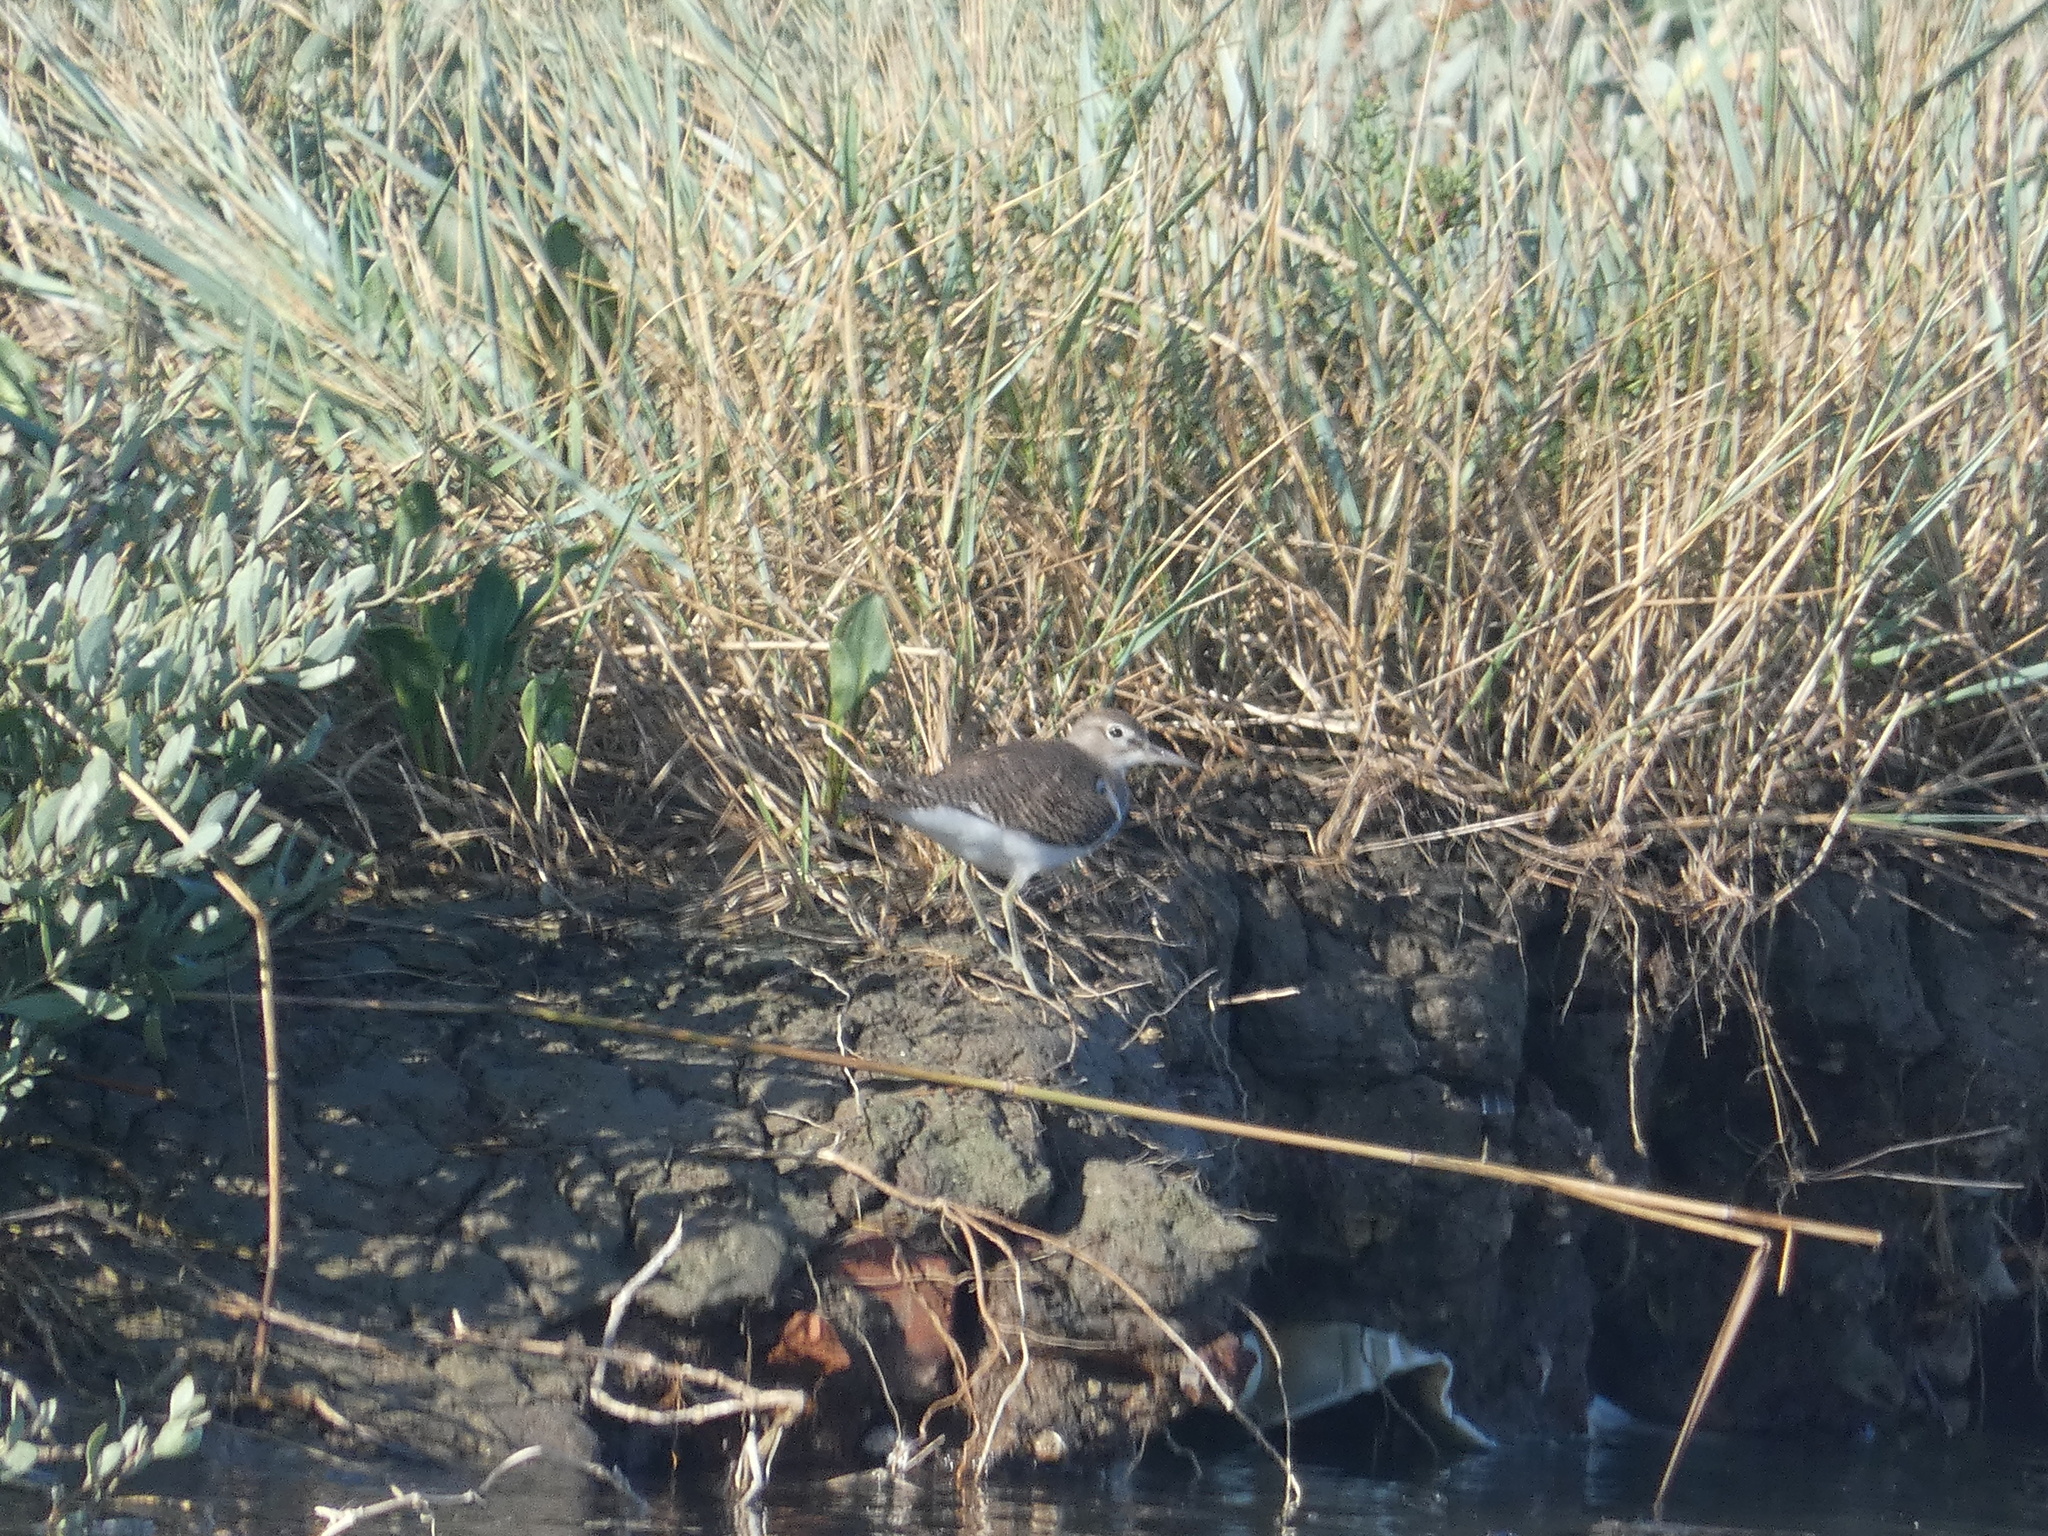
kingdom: Animalia
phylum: Chordata
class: Aves
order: Charadriiformes
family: Scolopacidae
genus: Actitis
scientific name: Actitis hypoleucos
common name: Common sandpiper
